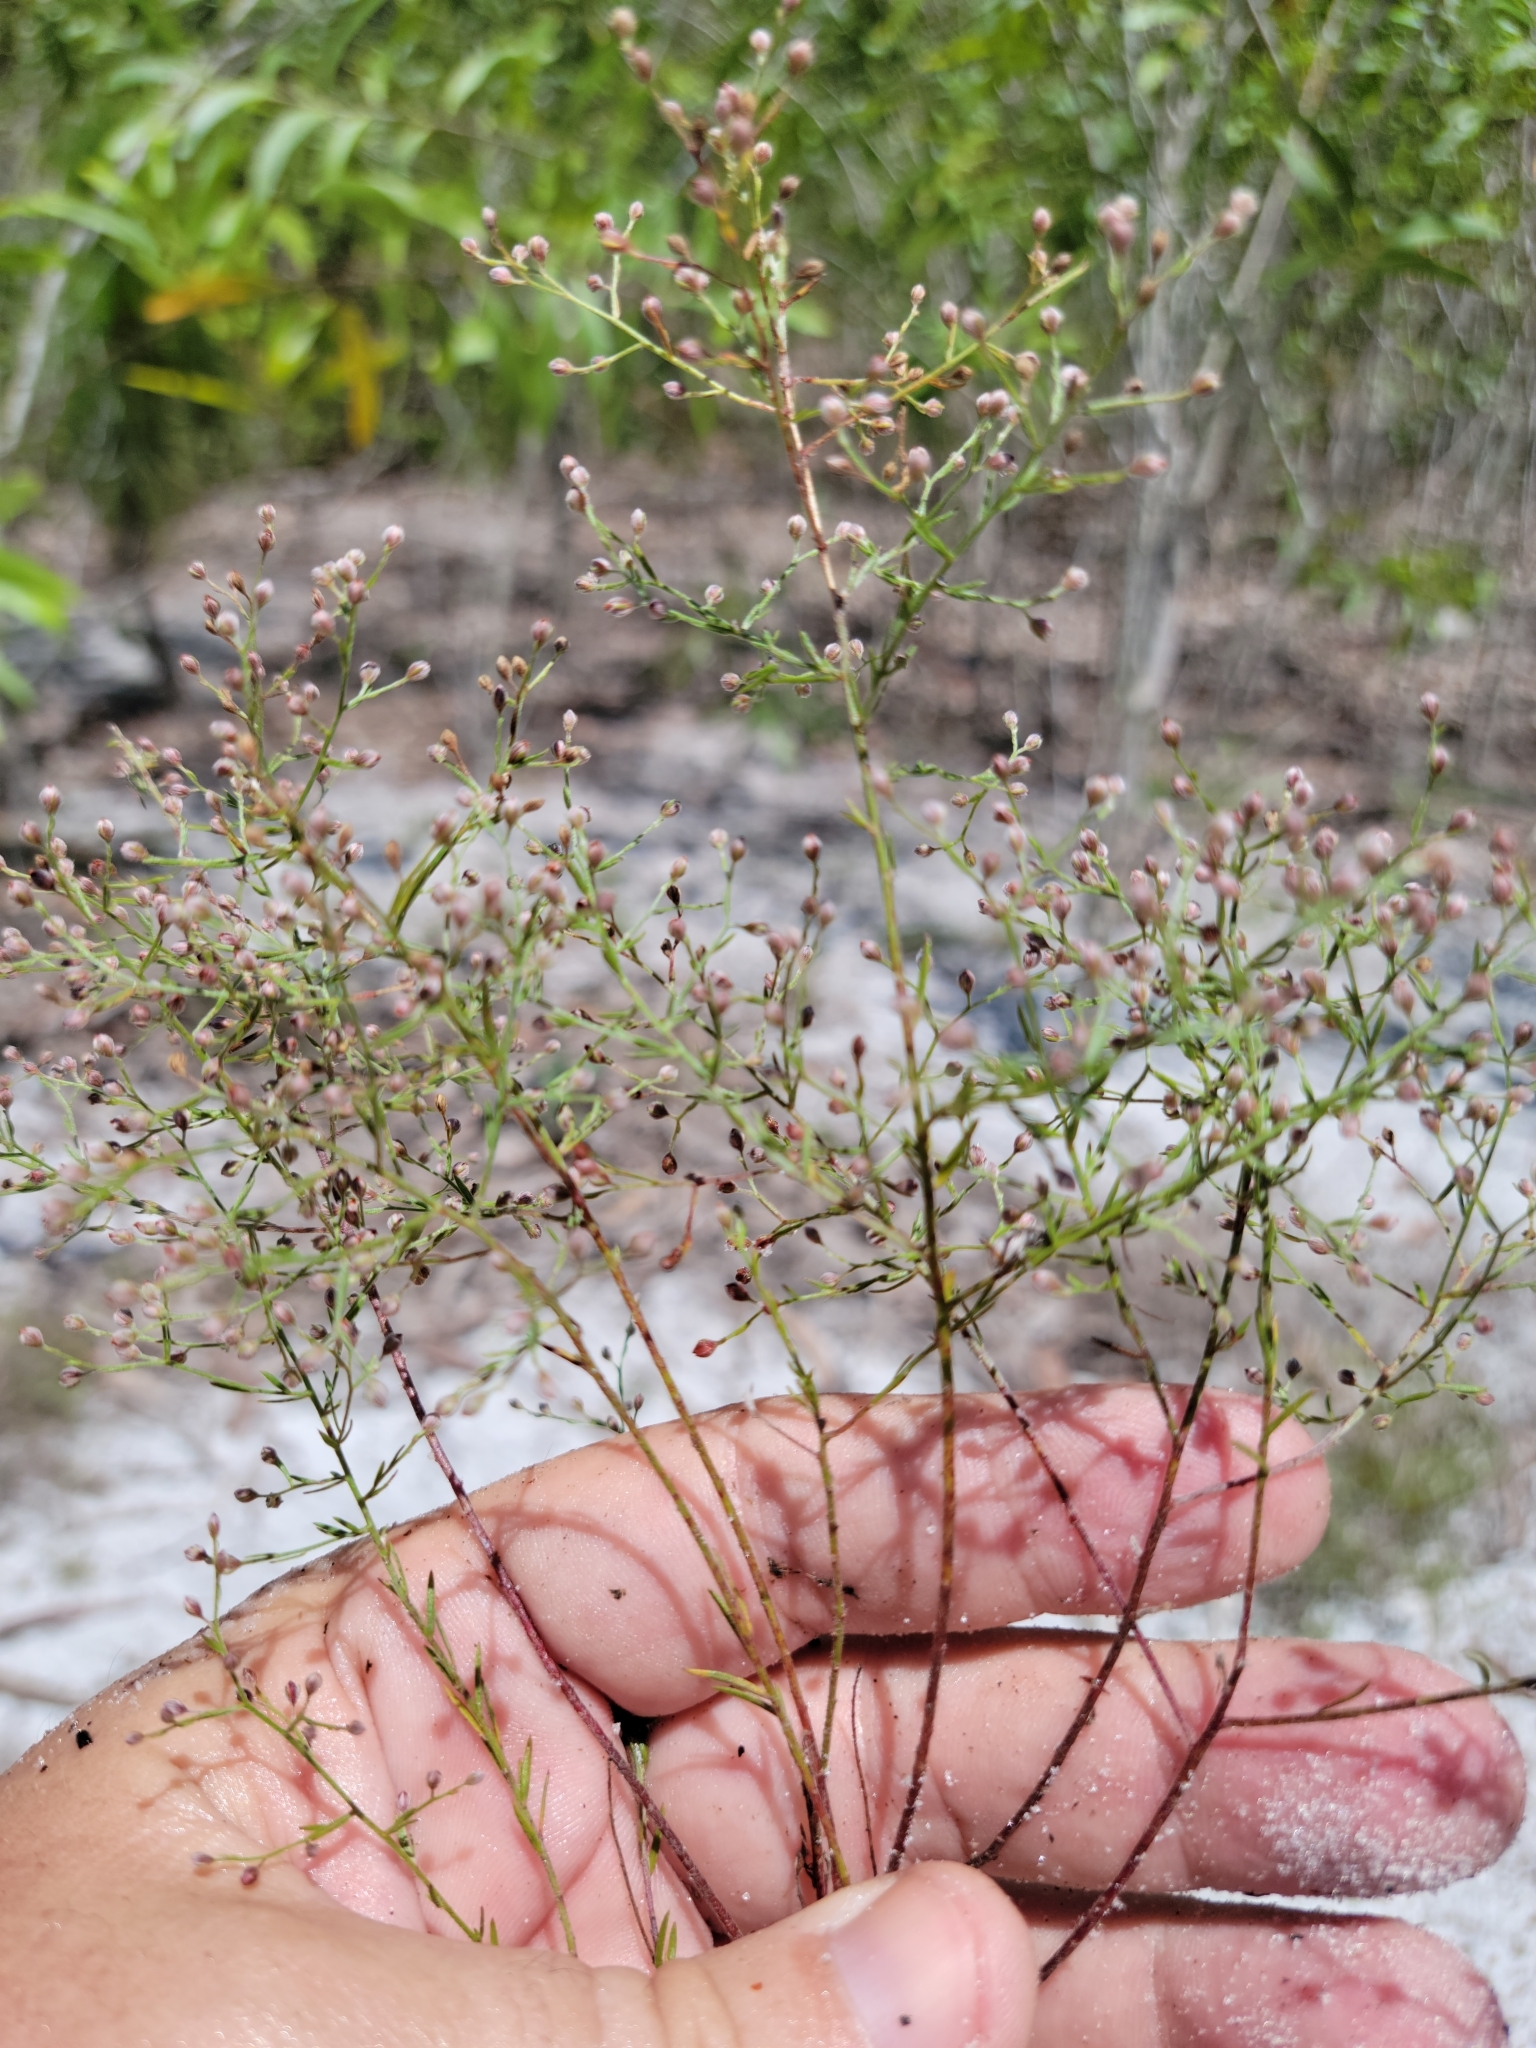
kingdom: Plantae
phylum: Tracheophyta
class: Magnoliopsida
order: Malvales
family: Cistaceae
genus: Lechea
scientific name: Lechea torreyi
